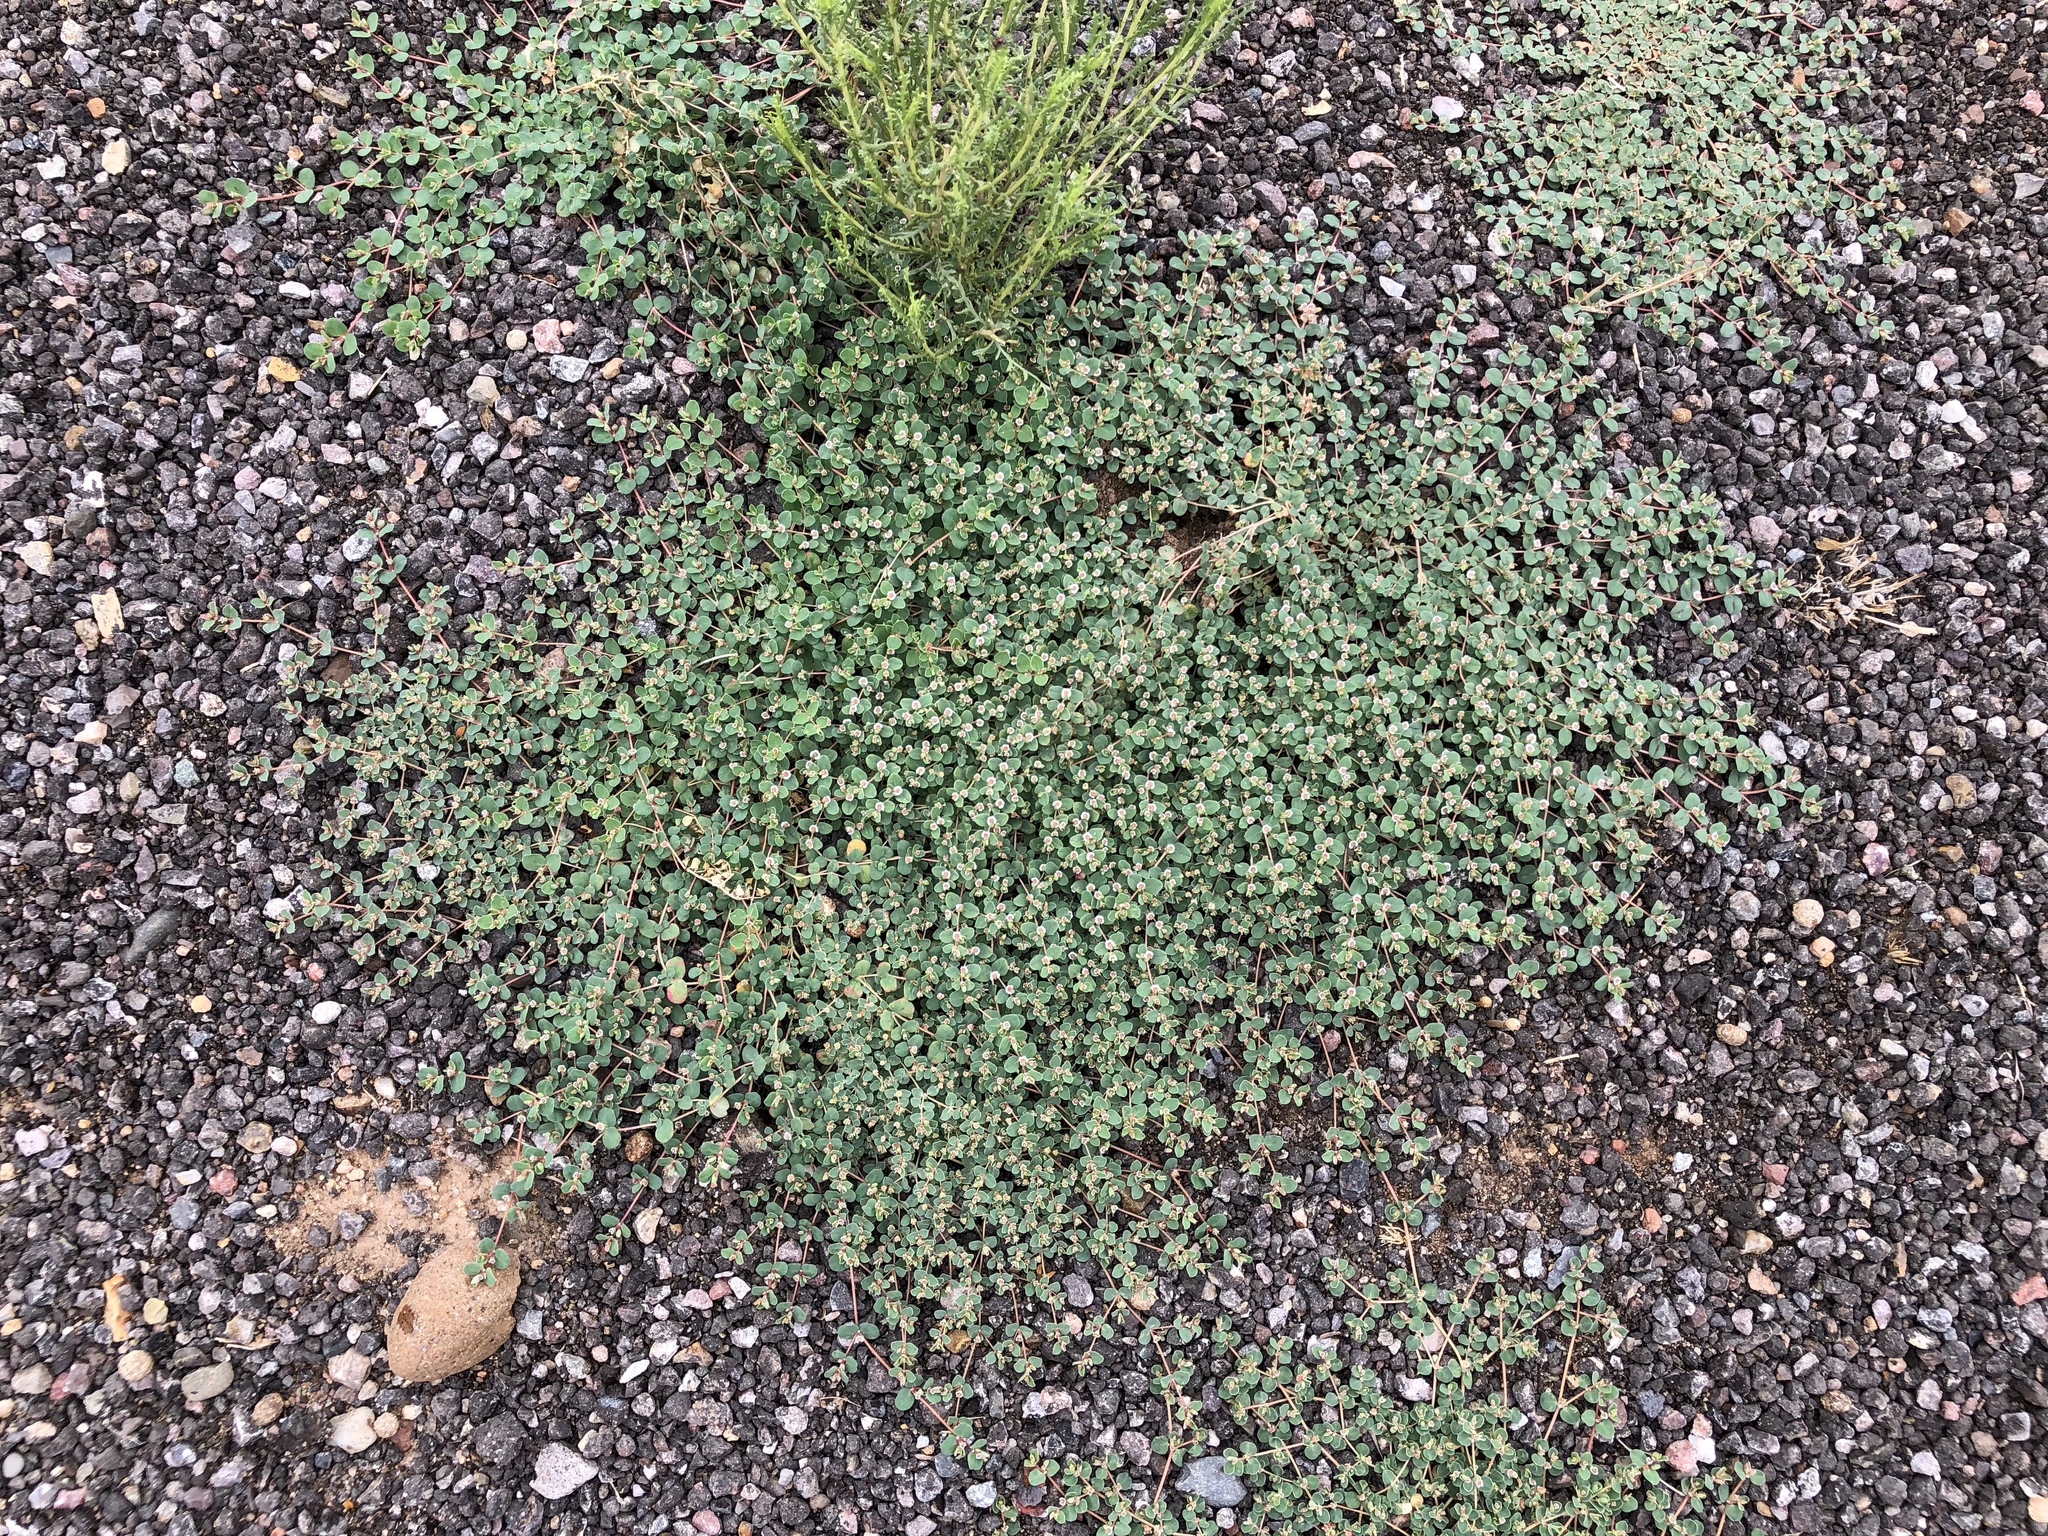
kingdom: Plantae
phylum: Tracheophyta
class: Magnoliopsida
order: Malpighiales
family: Euphorbiaceae
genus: Euphorbia
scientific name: Euphorbia albomarginata
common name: Whitemargin sandmat
